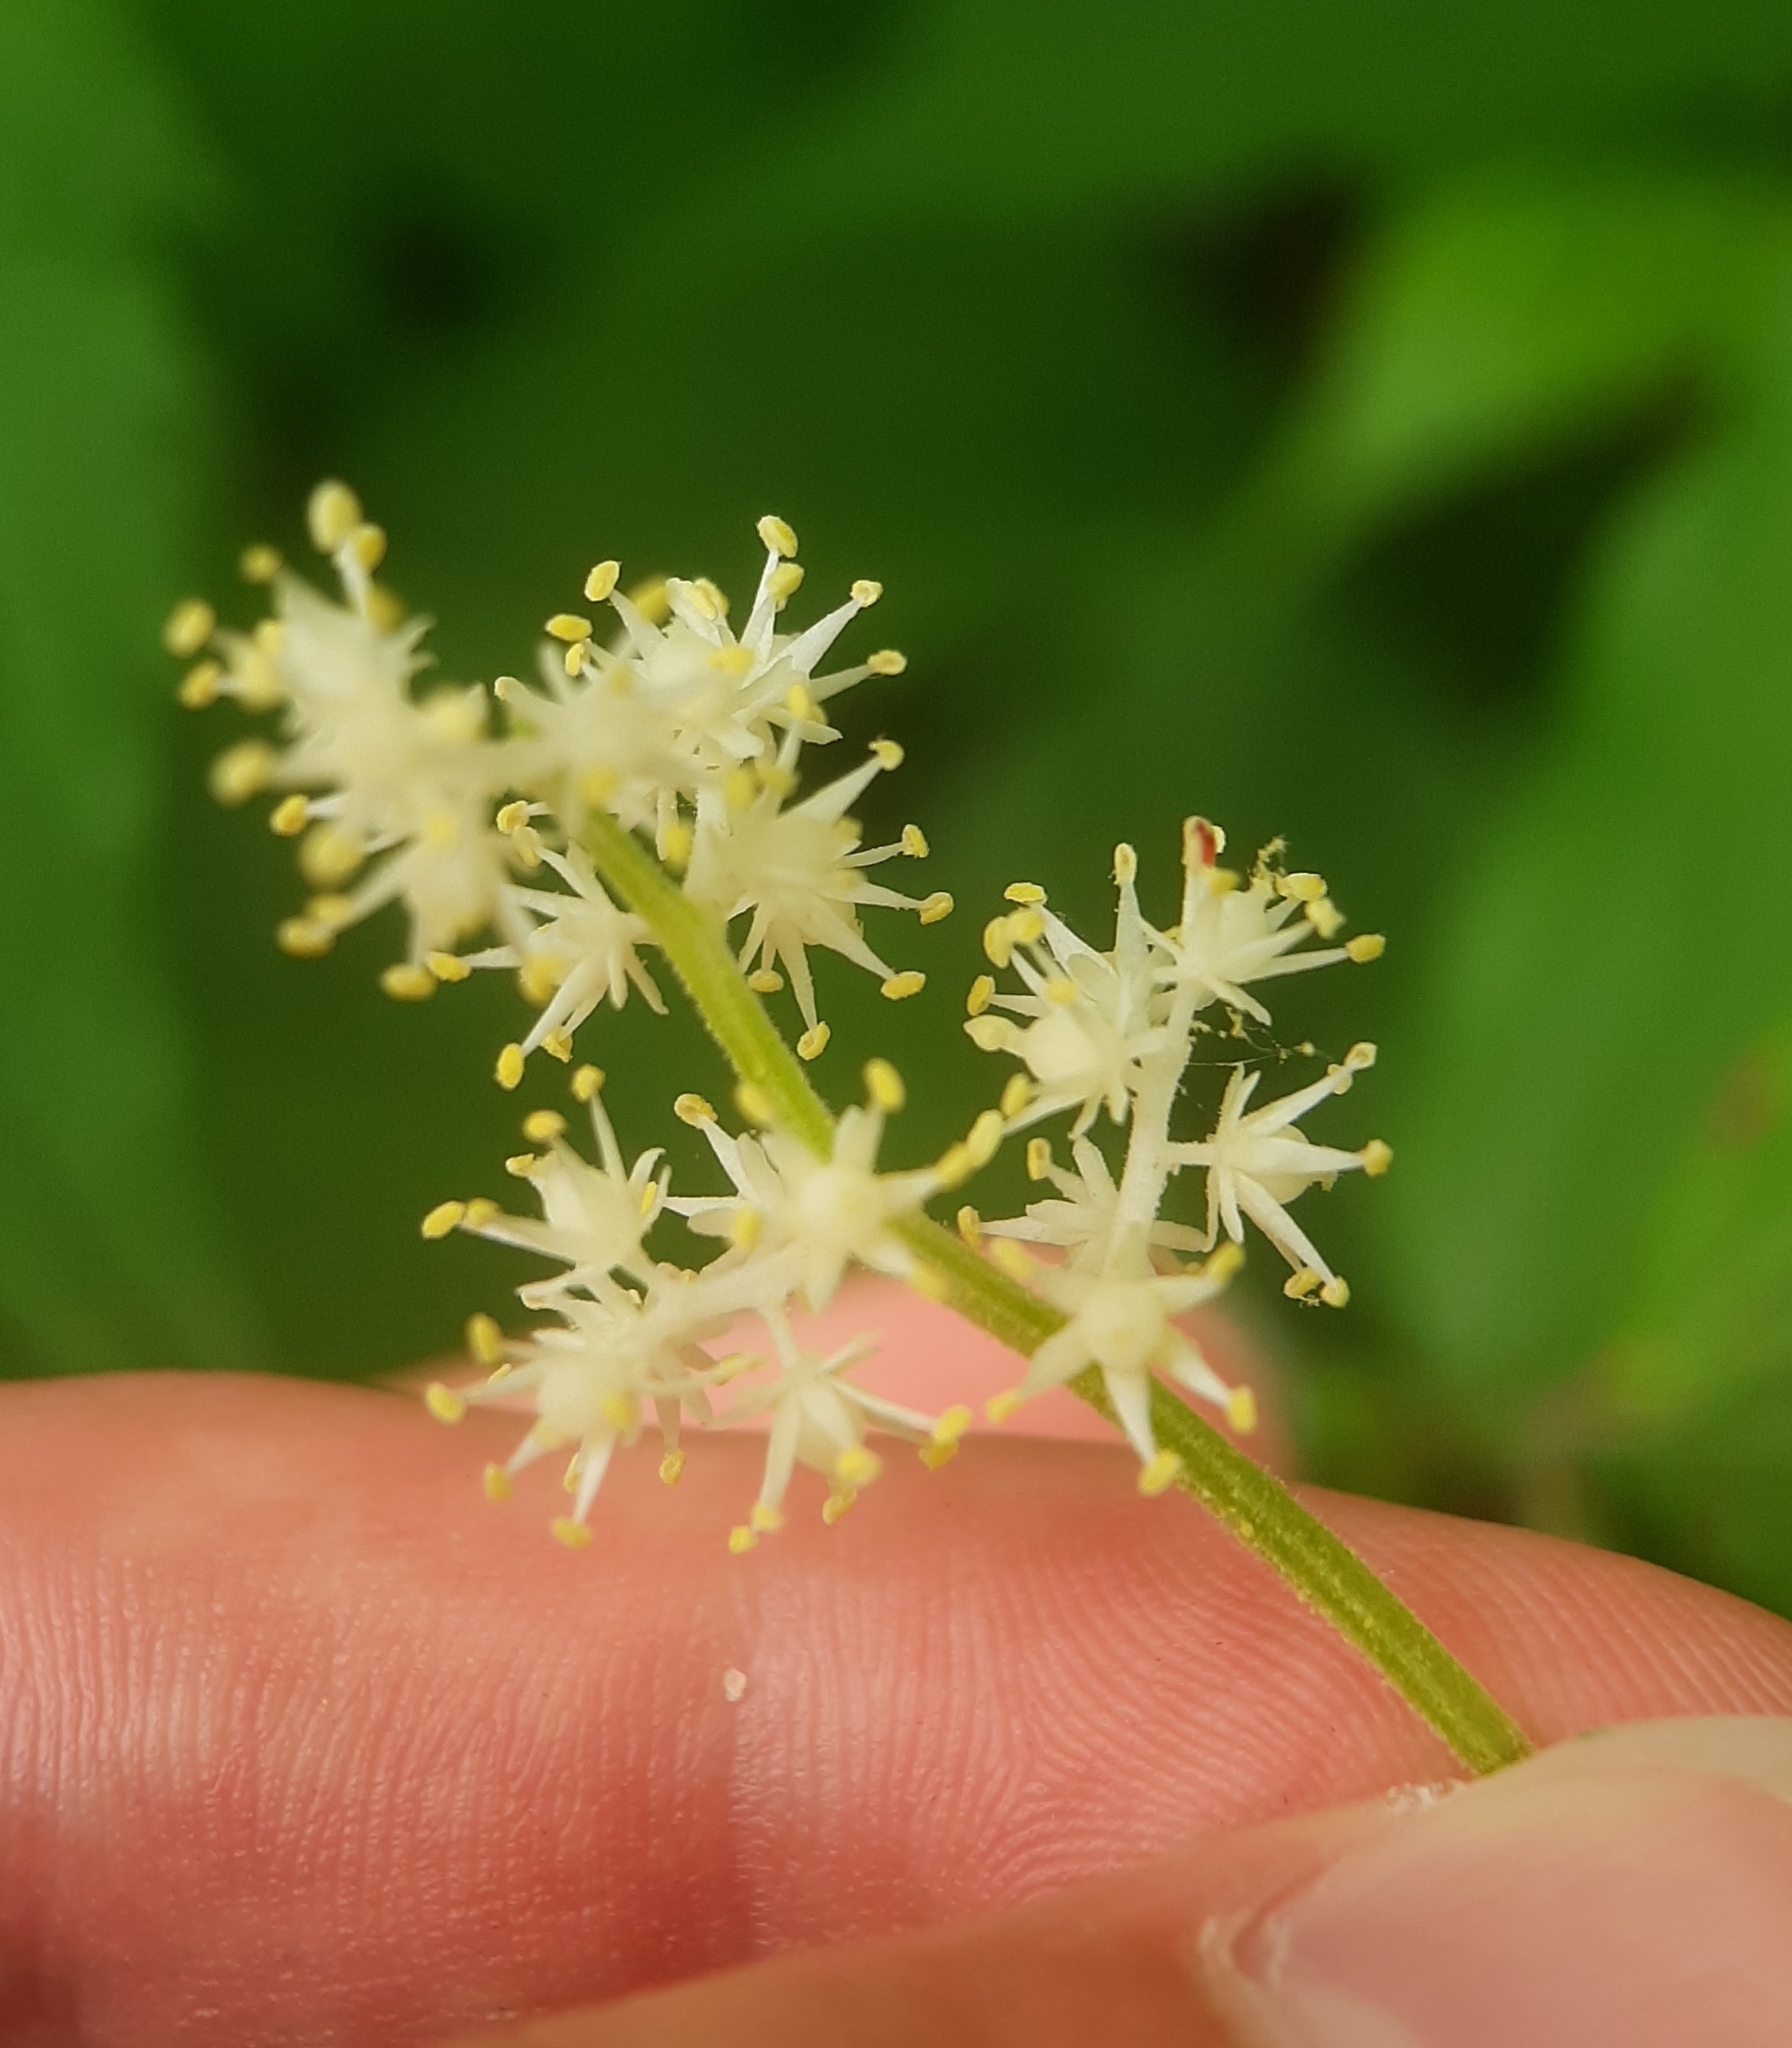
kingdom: Plantae
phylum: Tracheophyta
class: Liliopsida
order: Asparagales
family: Asparagaceae
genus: Maianthemum
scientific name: Maianthemum racemosum
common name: False spikenard
